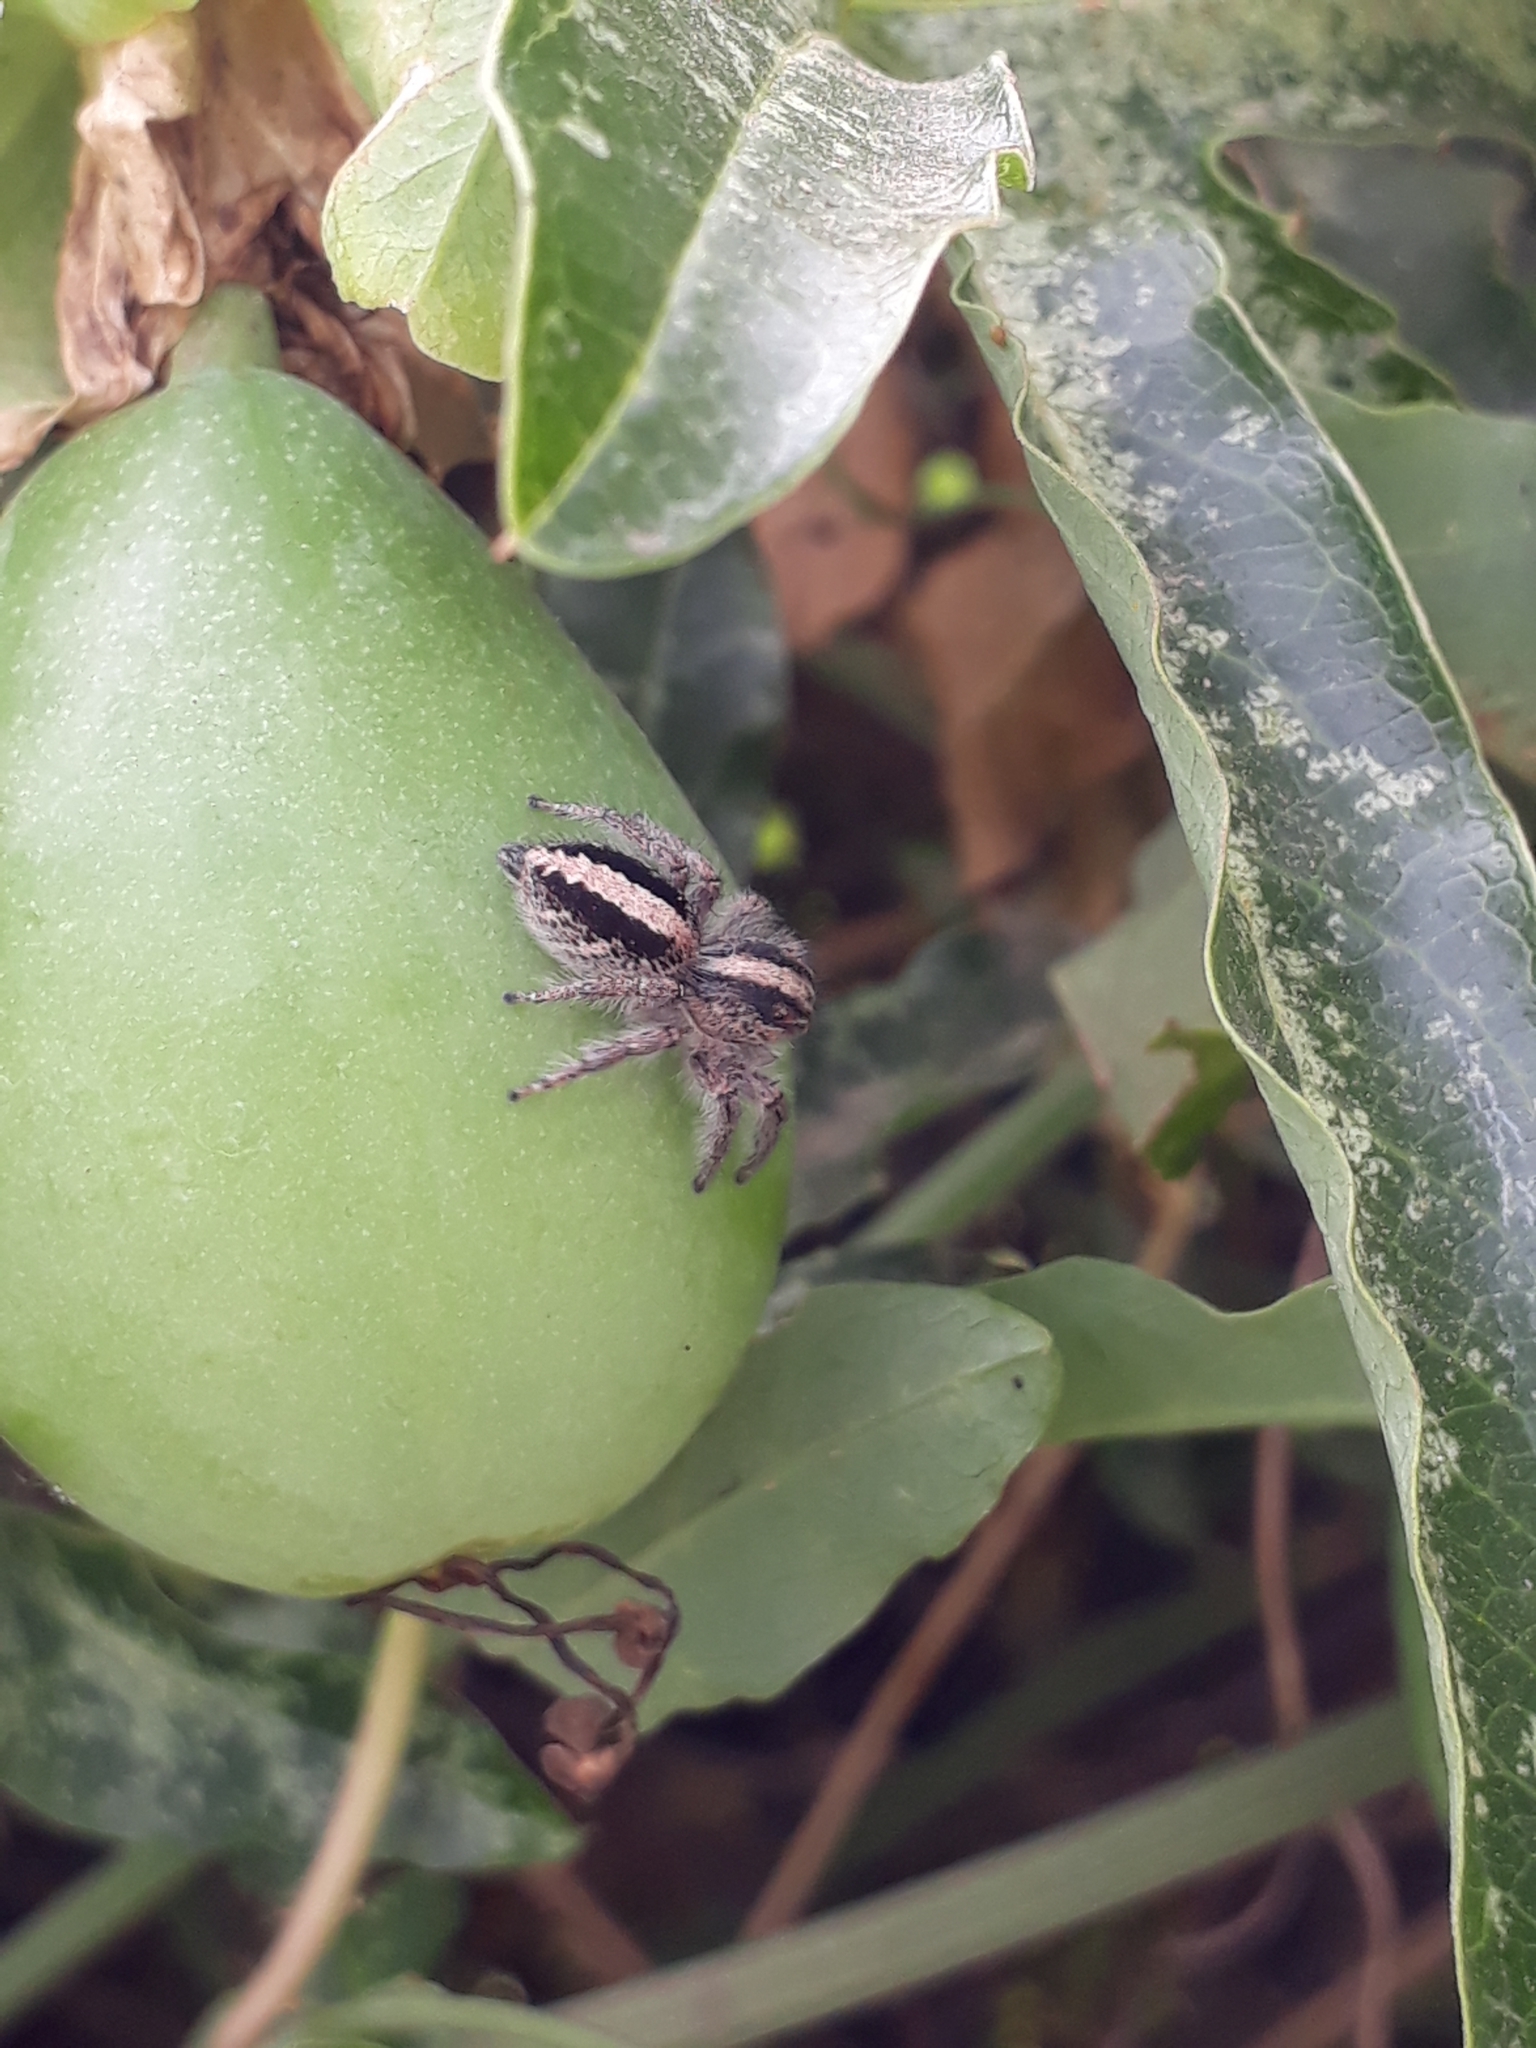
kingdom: Animalia
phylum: Arthropoda
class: Arachnida
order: Araneae
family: Salticidae
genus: Megafreya
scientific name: Megafreya sutrix
